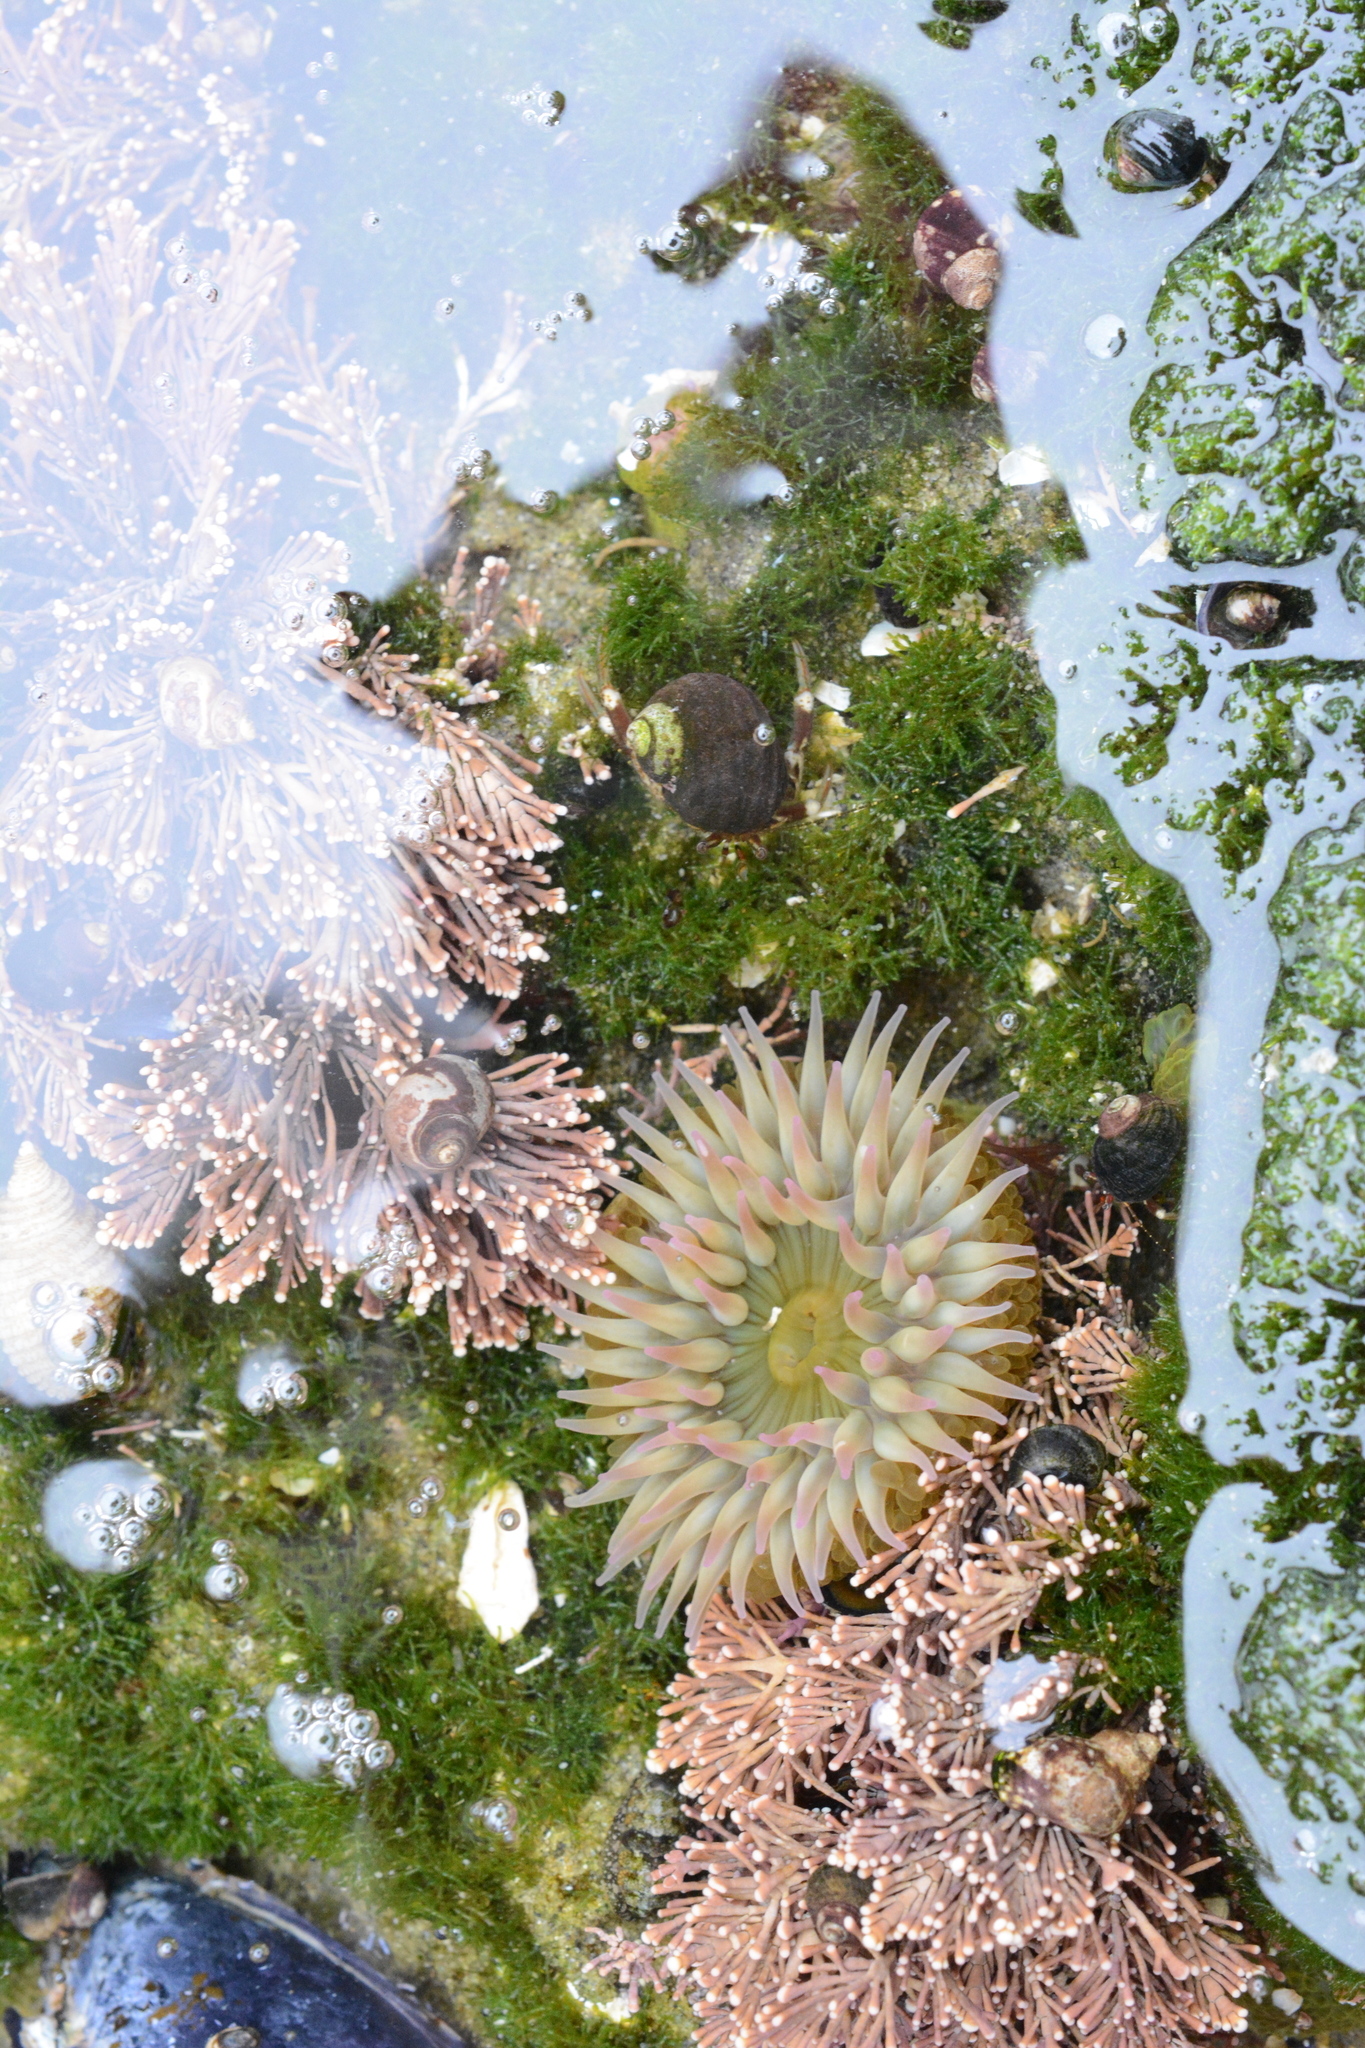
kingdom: Animalia
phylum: Cnidaria
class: Anthozoa
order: Actiniaria
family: Actiniidae
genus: Anthopleura
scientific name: Anthopleura elegantissima
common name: Clonal anemone
